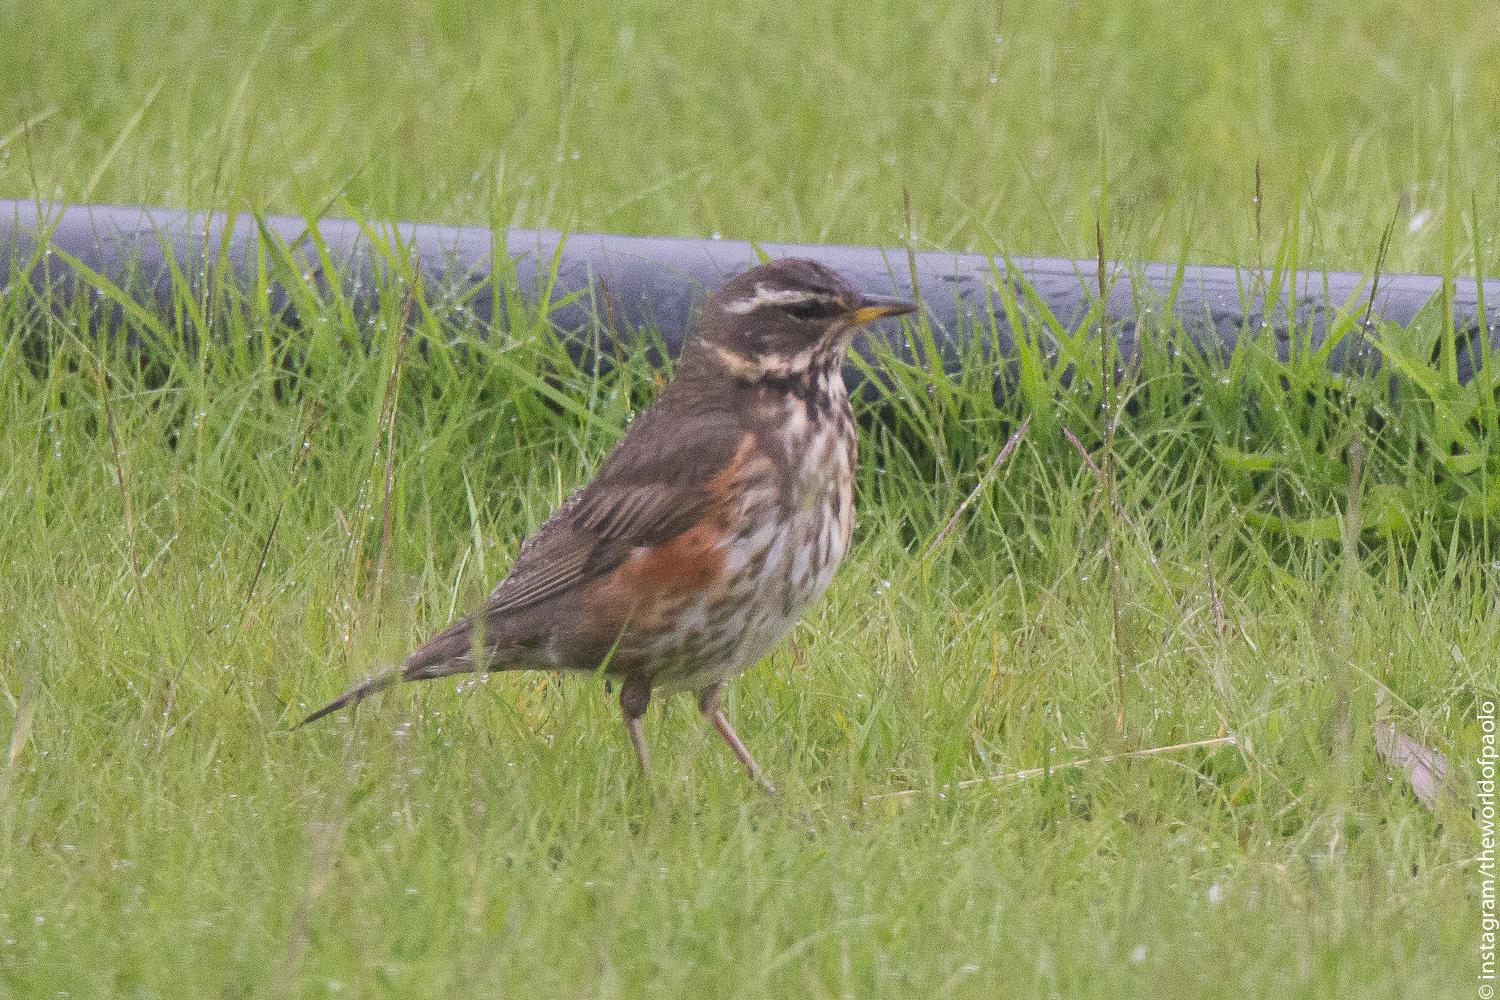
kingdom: Animalia
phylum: Chordata
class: Aves
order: Passeriformes
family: Turdidae
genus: Turdus
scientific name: Turdus iliacus
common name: Redwing
